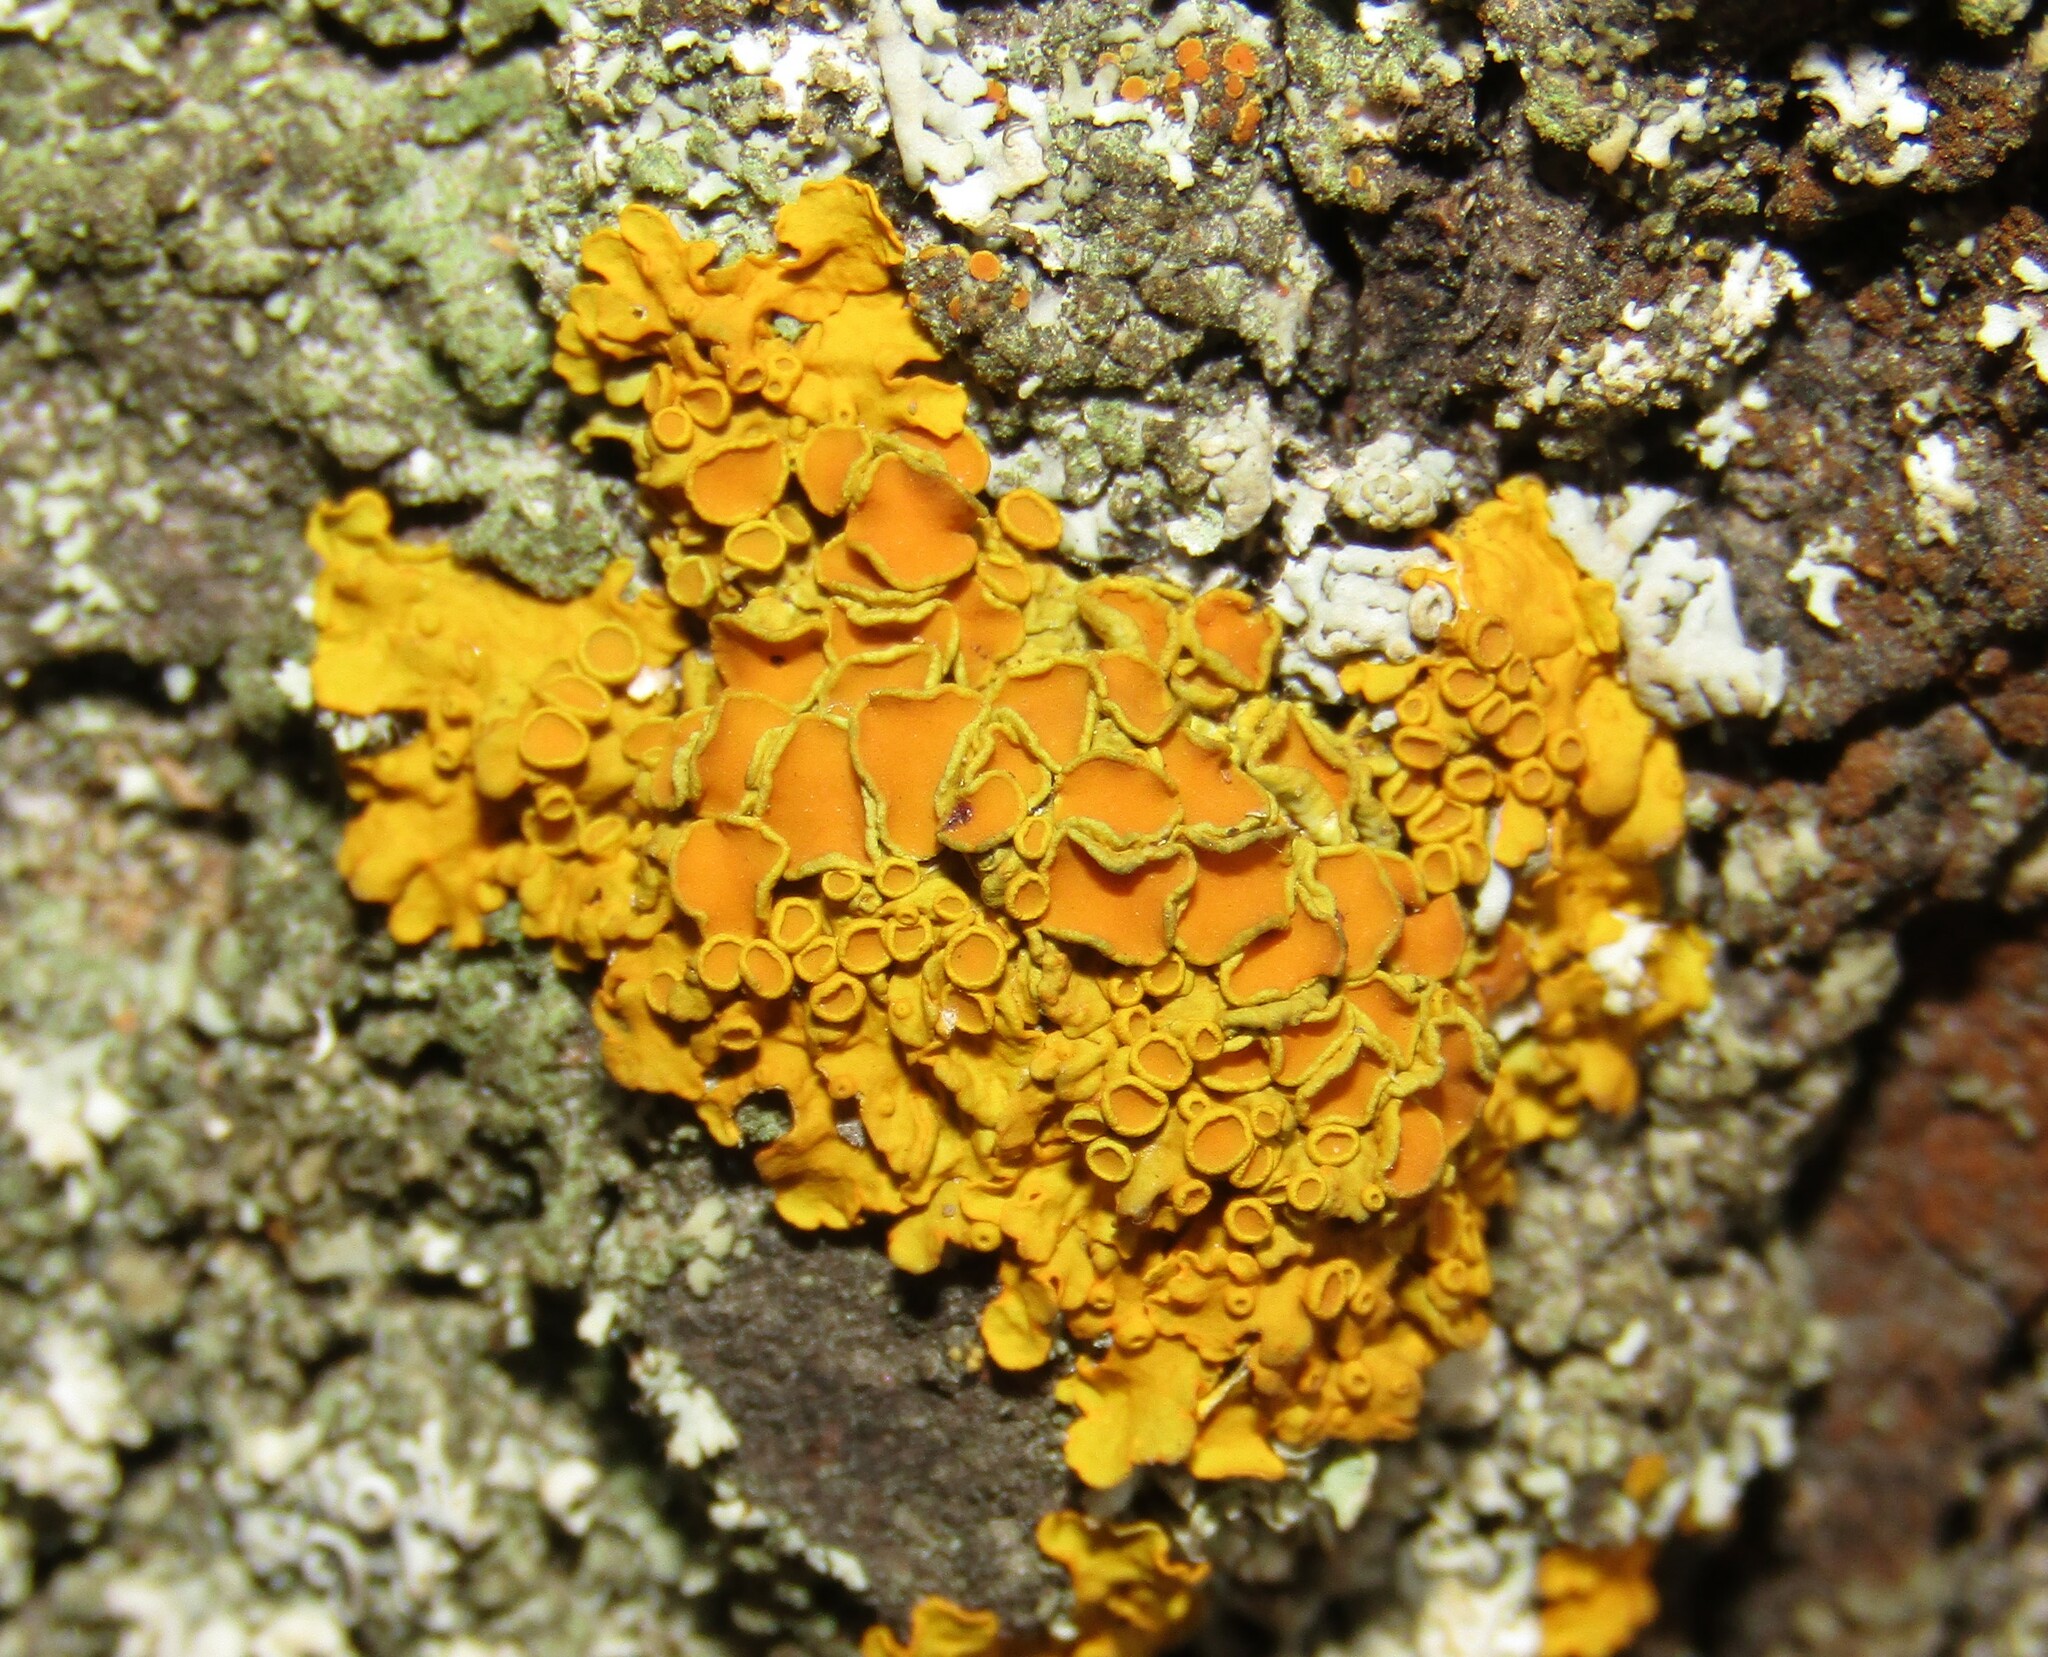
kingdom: Fungi
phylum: Ascomycota
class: Lecanoromycetes
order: Teloschistales
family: Teloschistaceae
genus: Xanthoria
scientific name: Xanthoria parietina
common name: Common orange lichen
